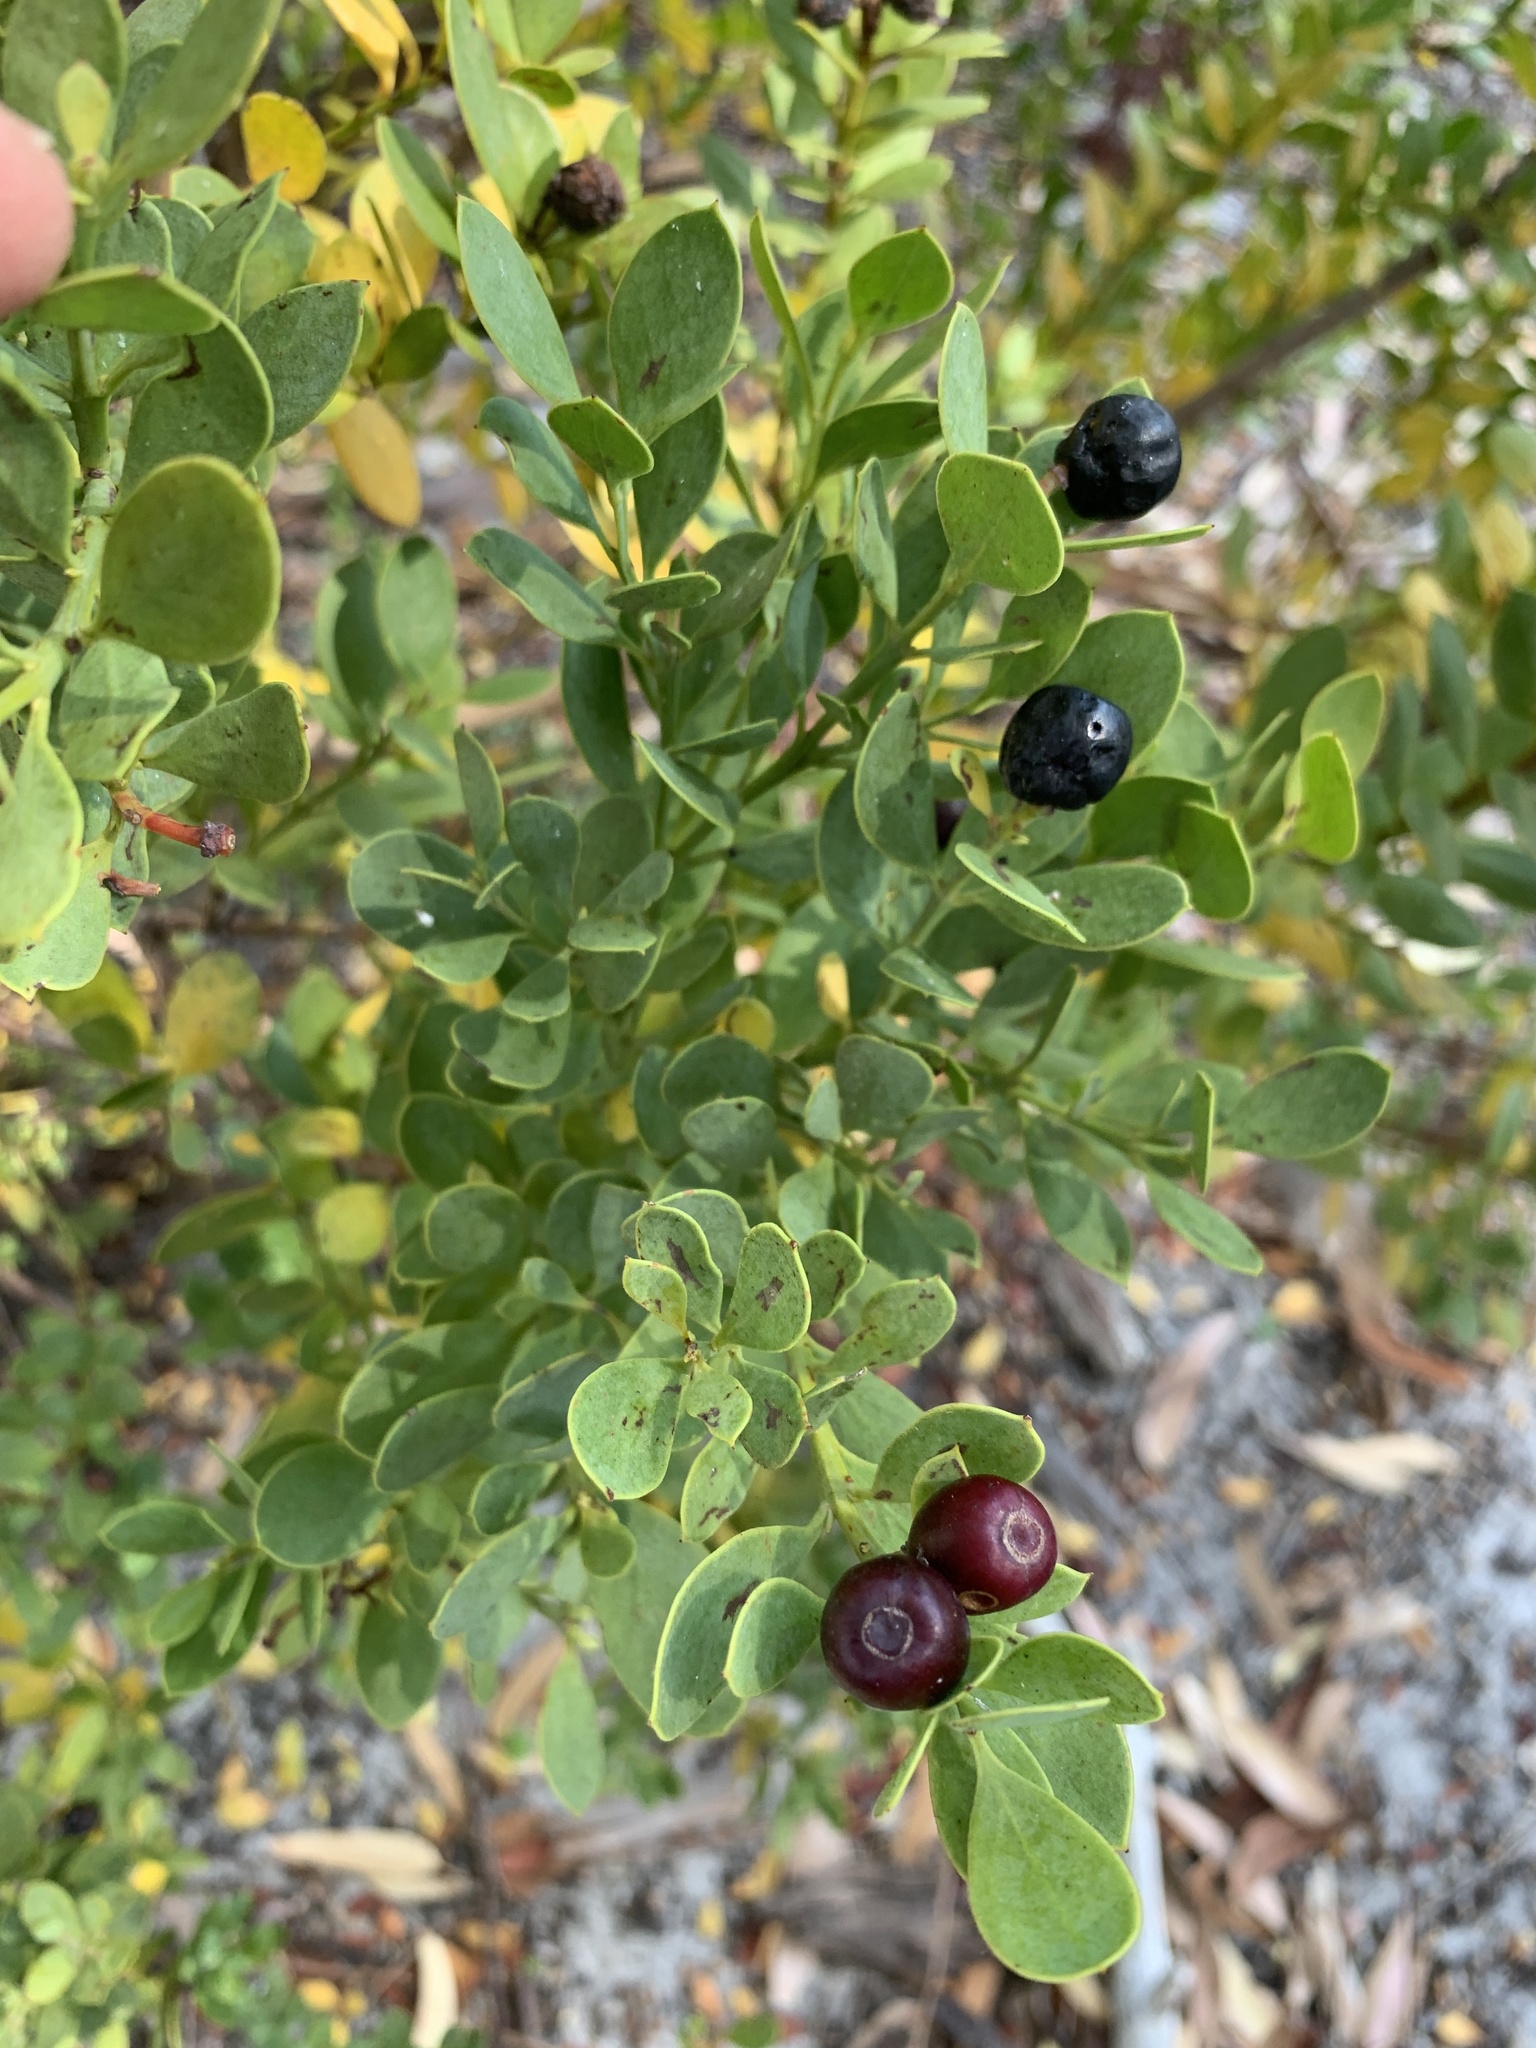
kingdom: Plantae
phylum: Tracheophyta
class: Magnoliopsida
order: Santalales
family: Santalaceae
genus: Osyris
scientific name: Osyris compressa
